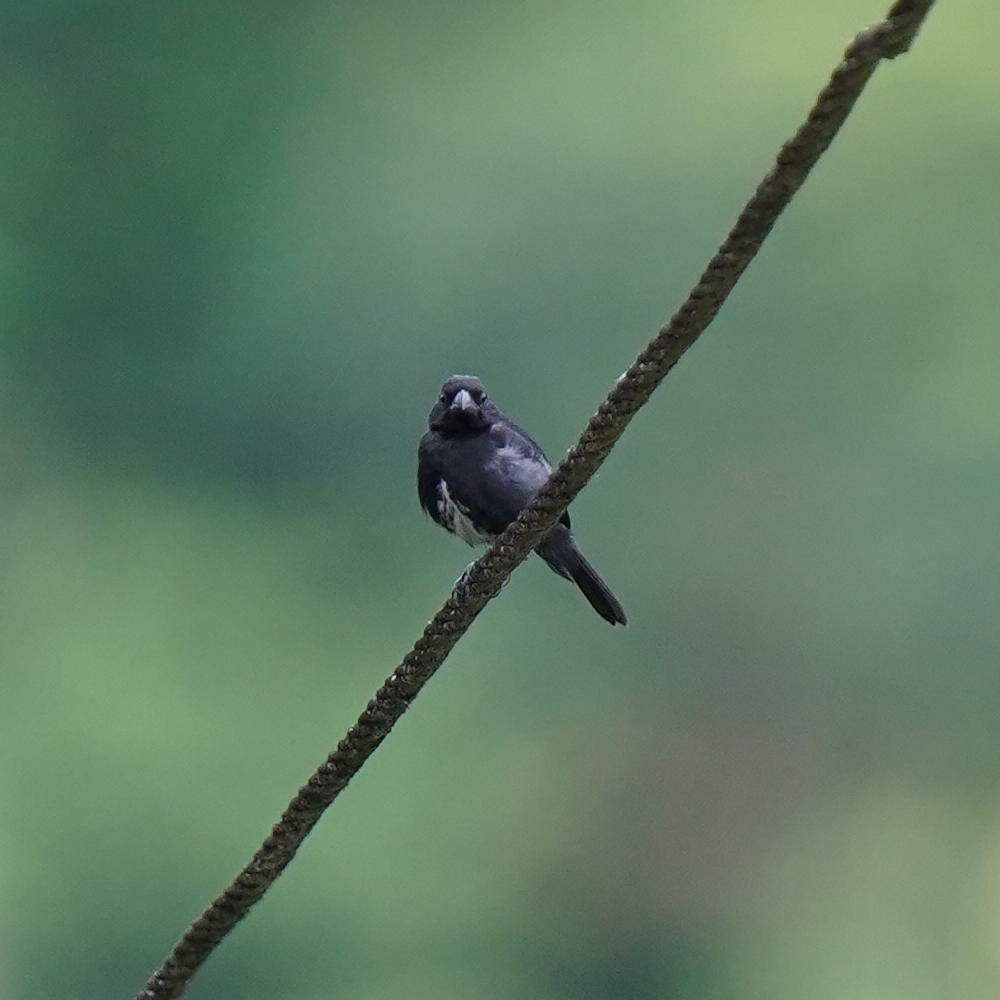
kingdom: Animalia
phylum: Chordata
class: Aves
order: Passeriformes
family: Thraupidae
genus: Sporophila
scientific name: Sporophila corvina
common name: Variable seedeater
